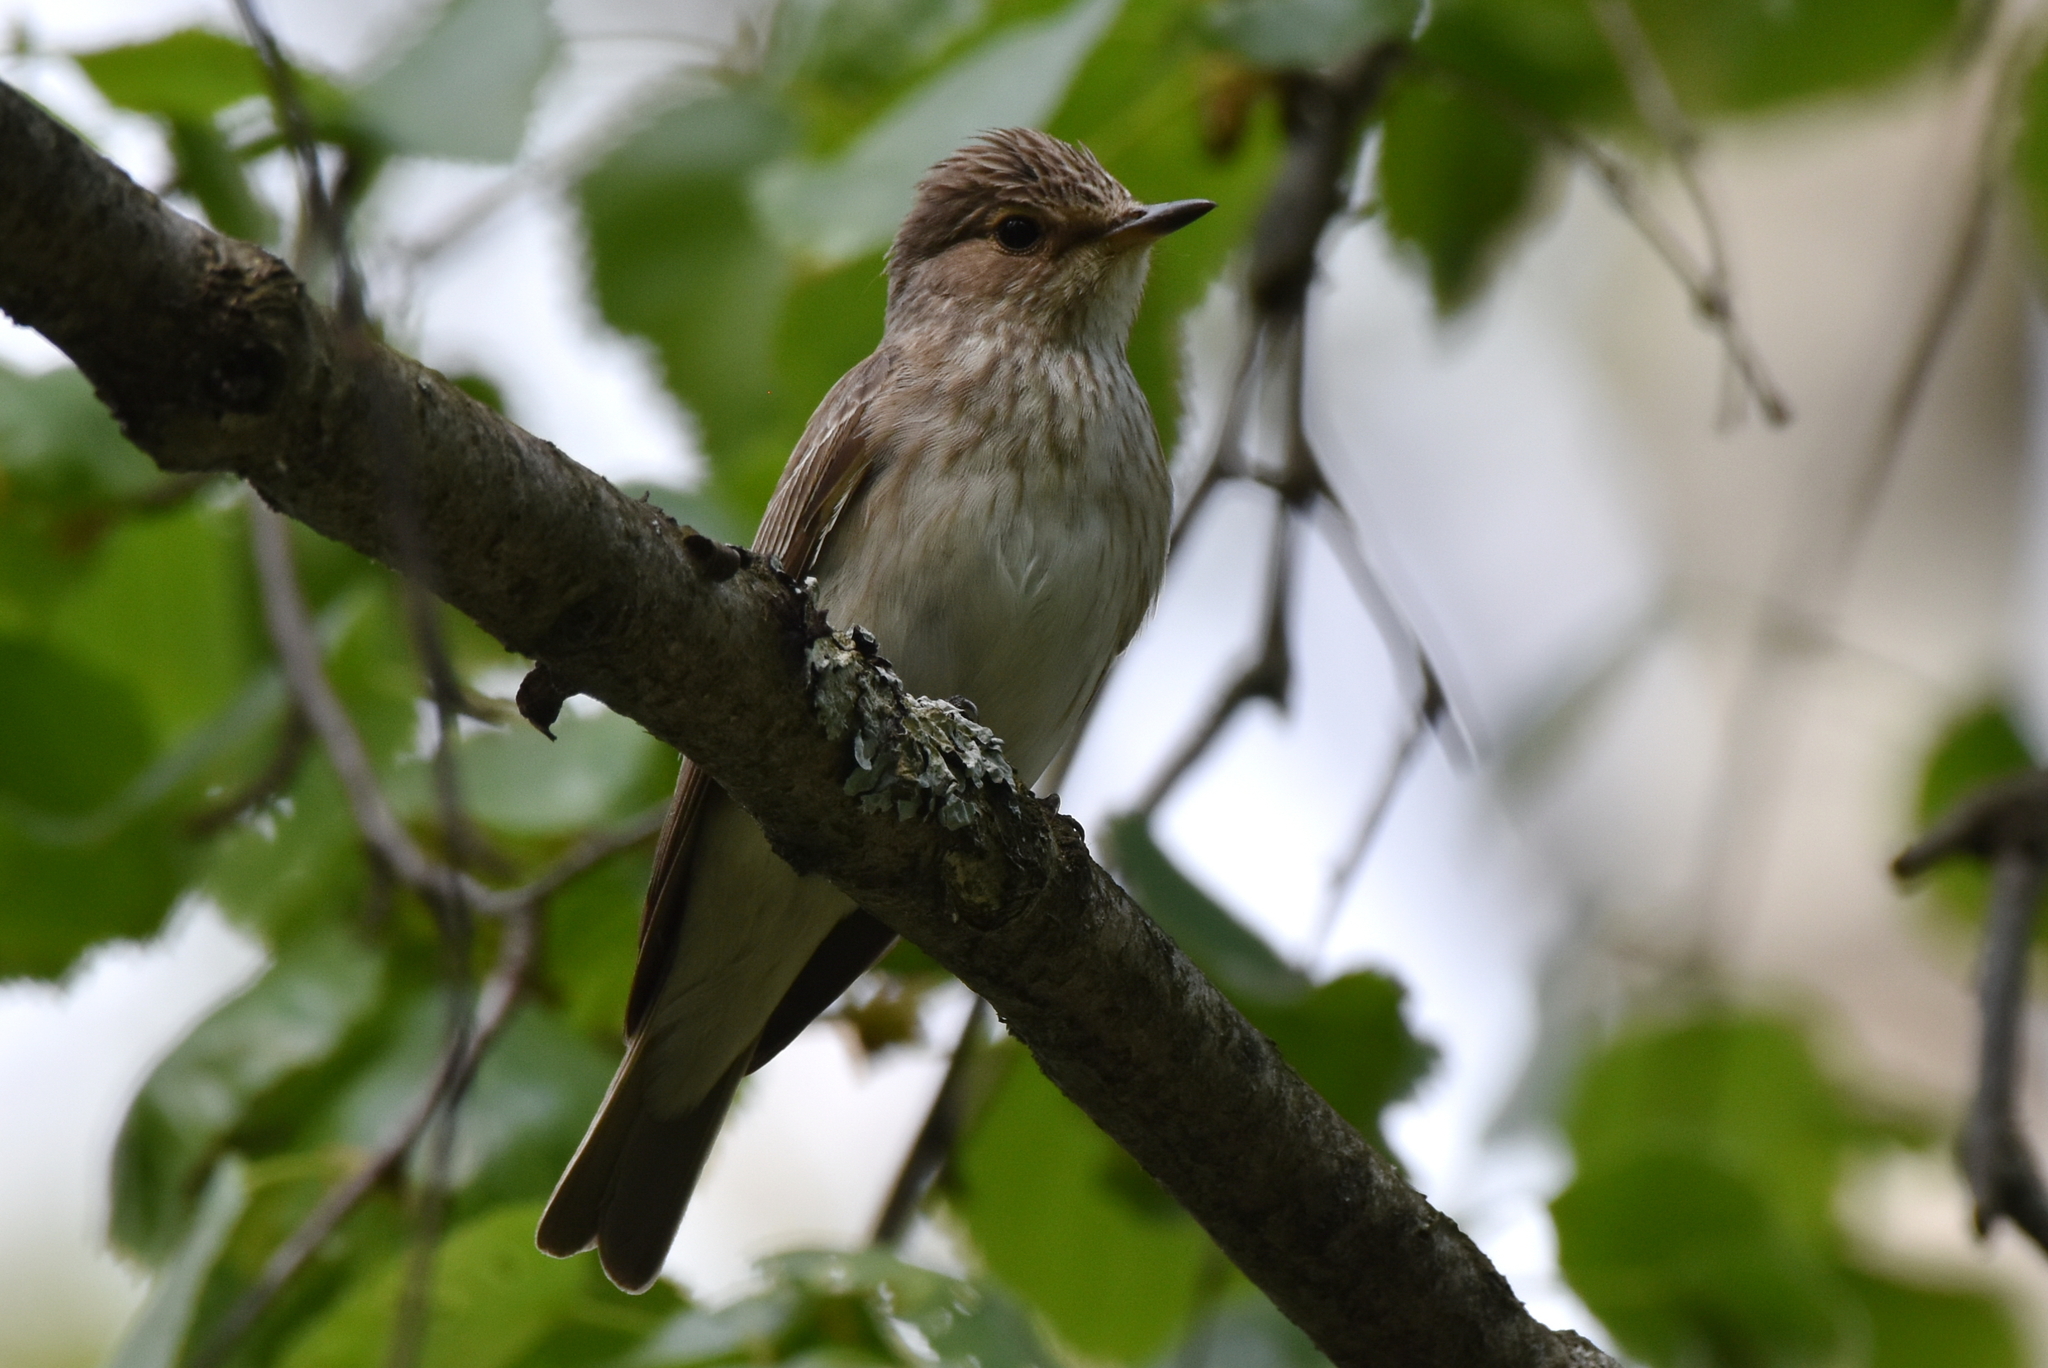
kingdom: Animalia
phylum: Chordata
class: Aves
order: Passeriformes
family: Muscicapidae
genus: Muscicapa
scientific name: Muscicapa striata
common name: Spotted flycatcher
